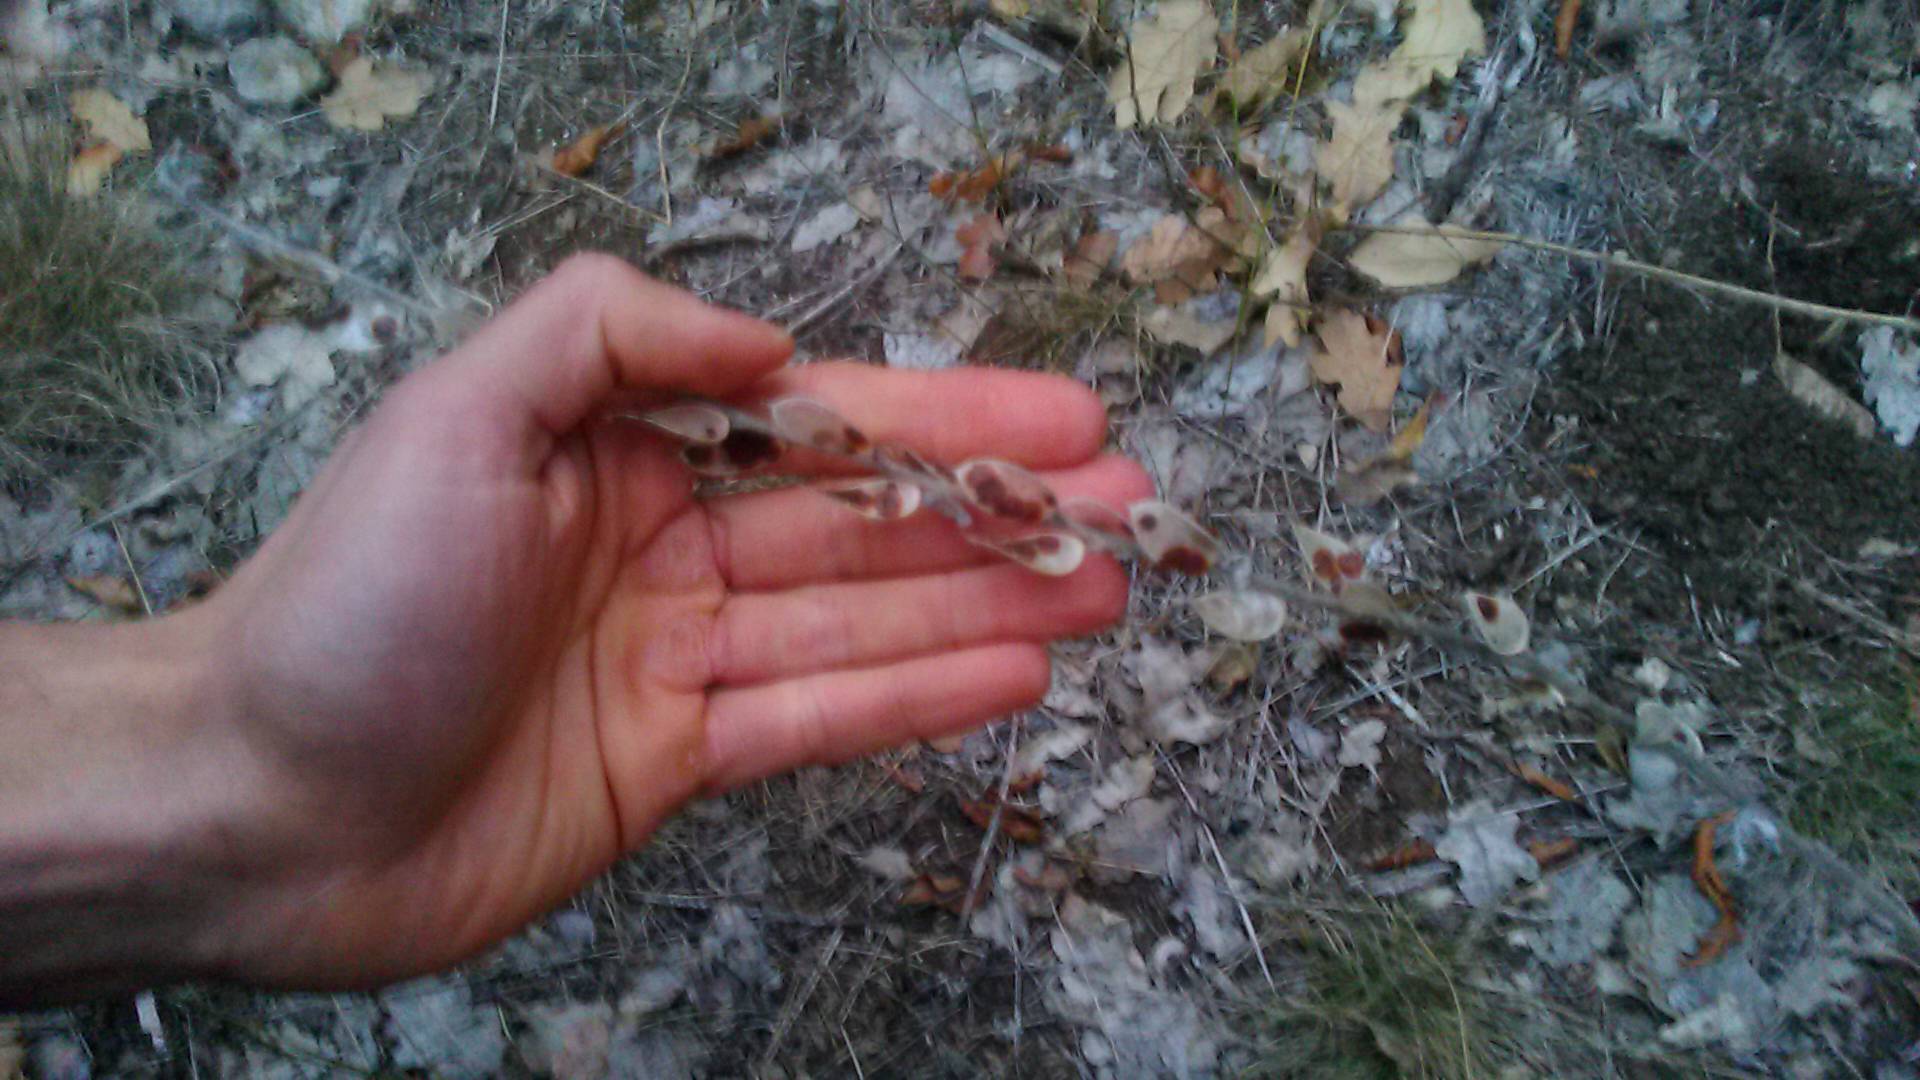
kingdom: Plantae
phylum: Tracheophyta
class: Magnoliopsida
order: Brassicales
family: Brassicaceae
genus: Fibigia
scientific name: Fibigia clypeata
